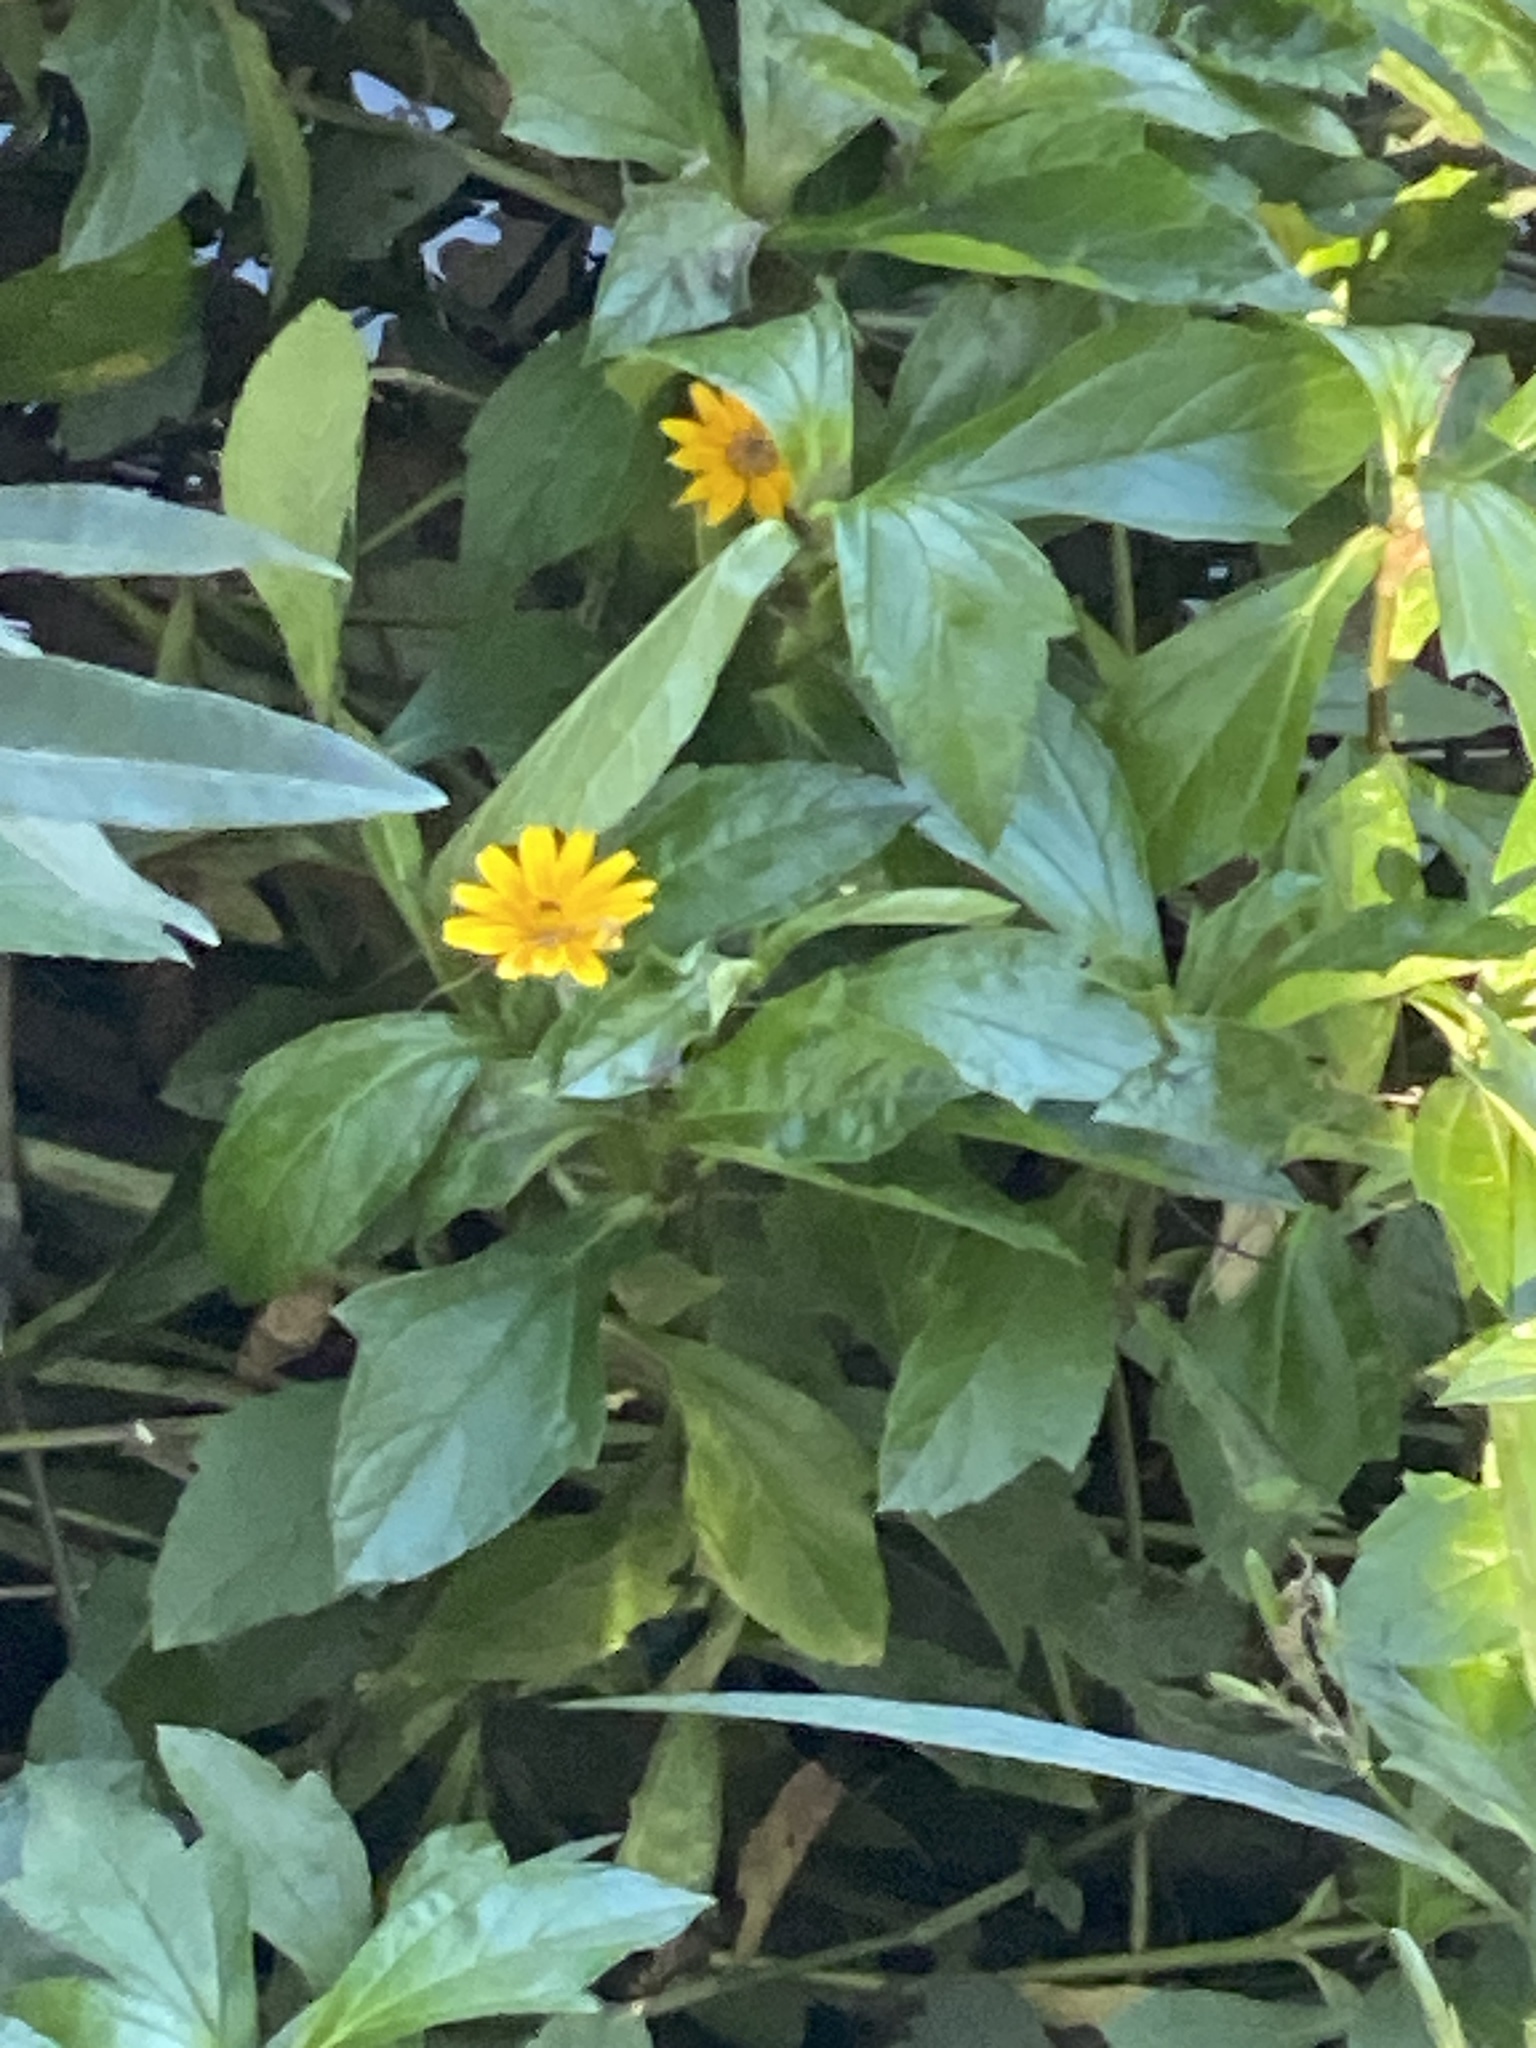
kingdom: Plantae
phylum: Tracheophyta
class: Magnoliopsida
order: Asterales
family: Asteraceae
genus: Sphagneticola
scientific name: Sphagneticola trilobata
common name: Bay biscayne creeping-oxeye
